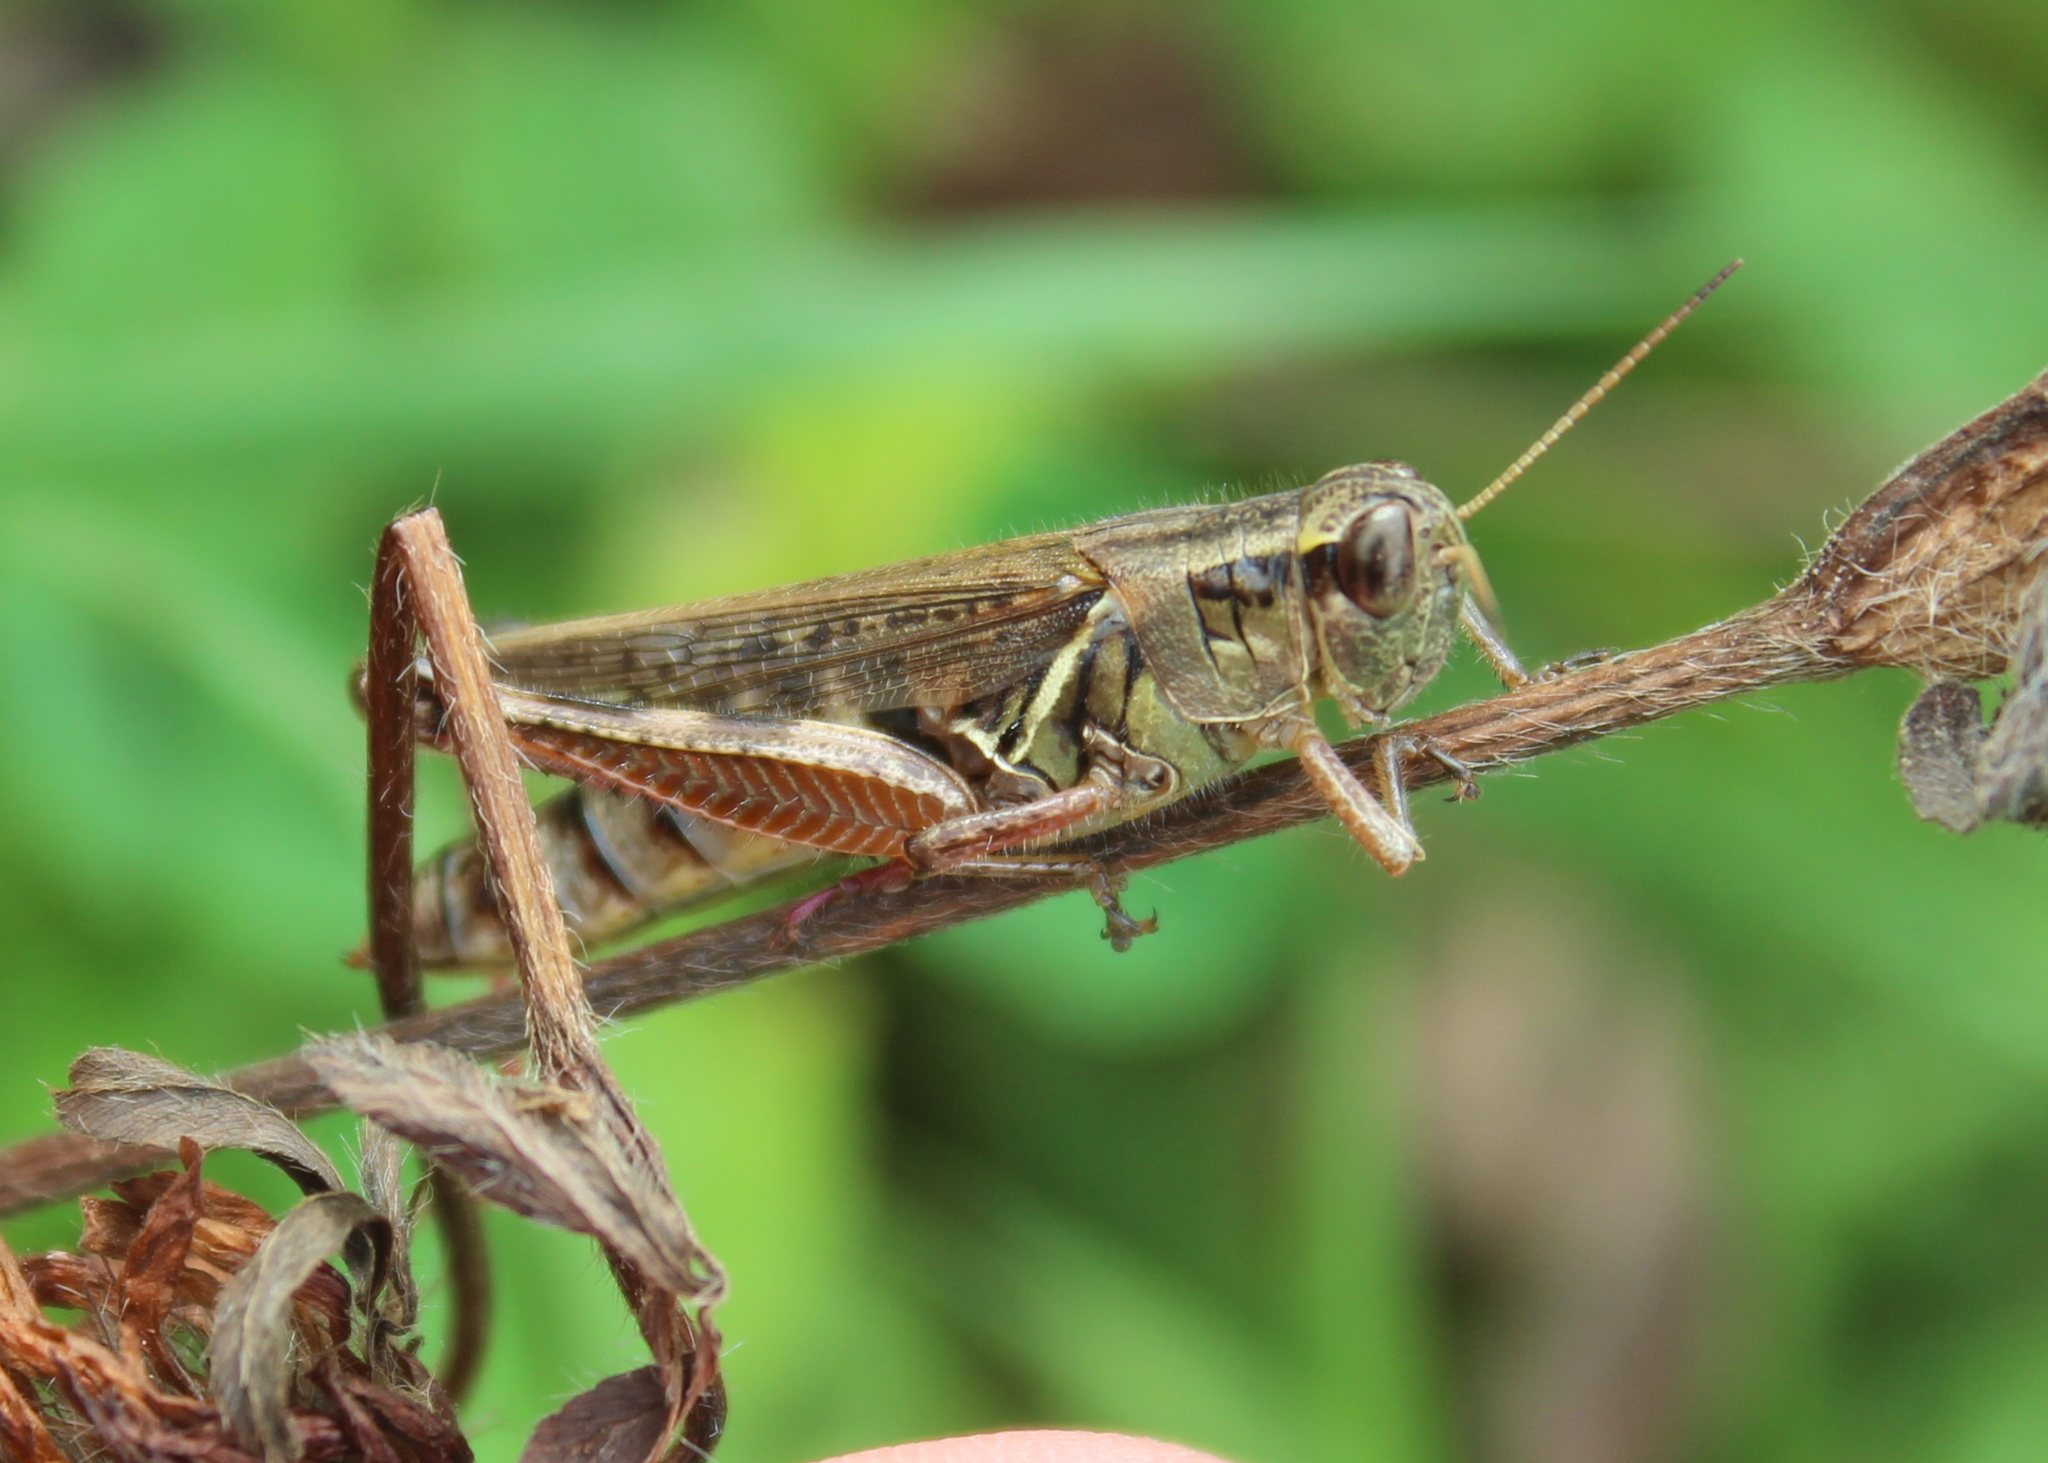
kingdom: Animalia
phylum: Arthropoda
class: Insecta
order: Orthoptera
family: Acrididae
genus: Melanoplus
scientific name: Melanoplus femurrubrum
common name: Red-legged grasshopper
